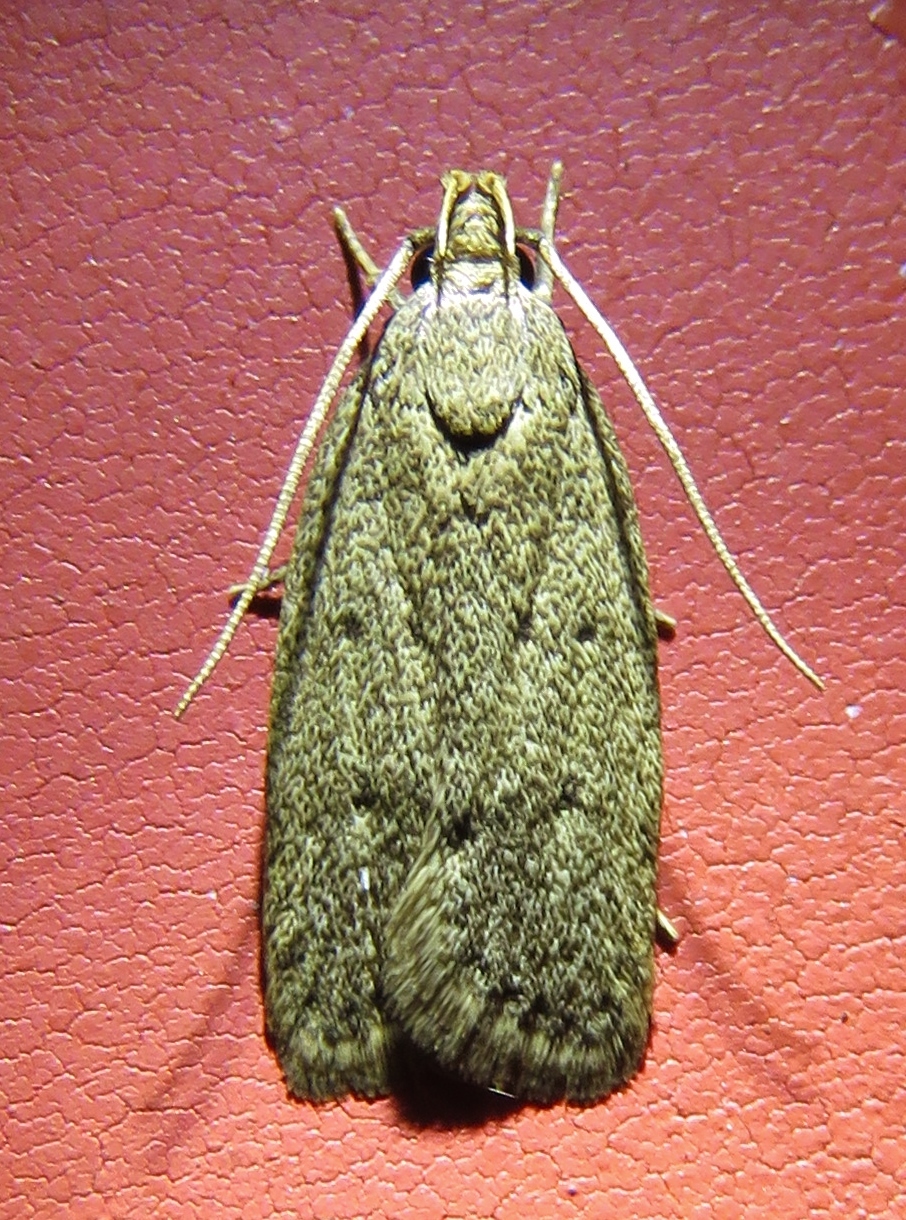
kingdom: Animalia
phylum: Arthropoda
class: Insecta
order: Lepidoptera
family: Autostichidae
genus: Autosticha
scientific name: Autosticha kyotensis
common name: Kyoto moth
